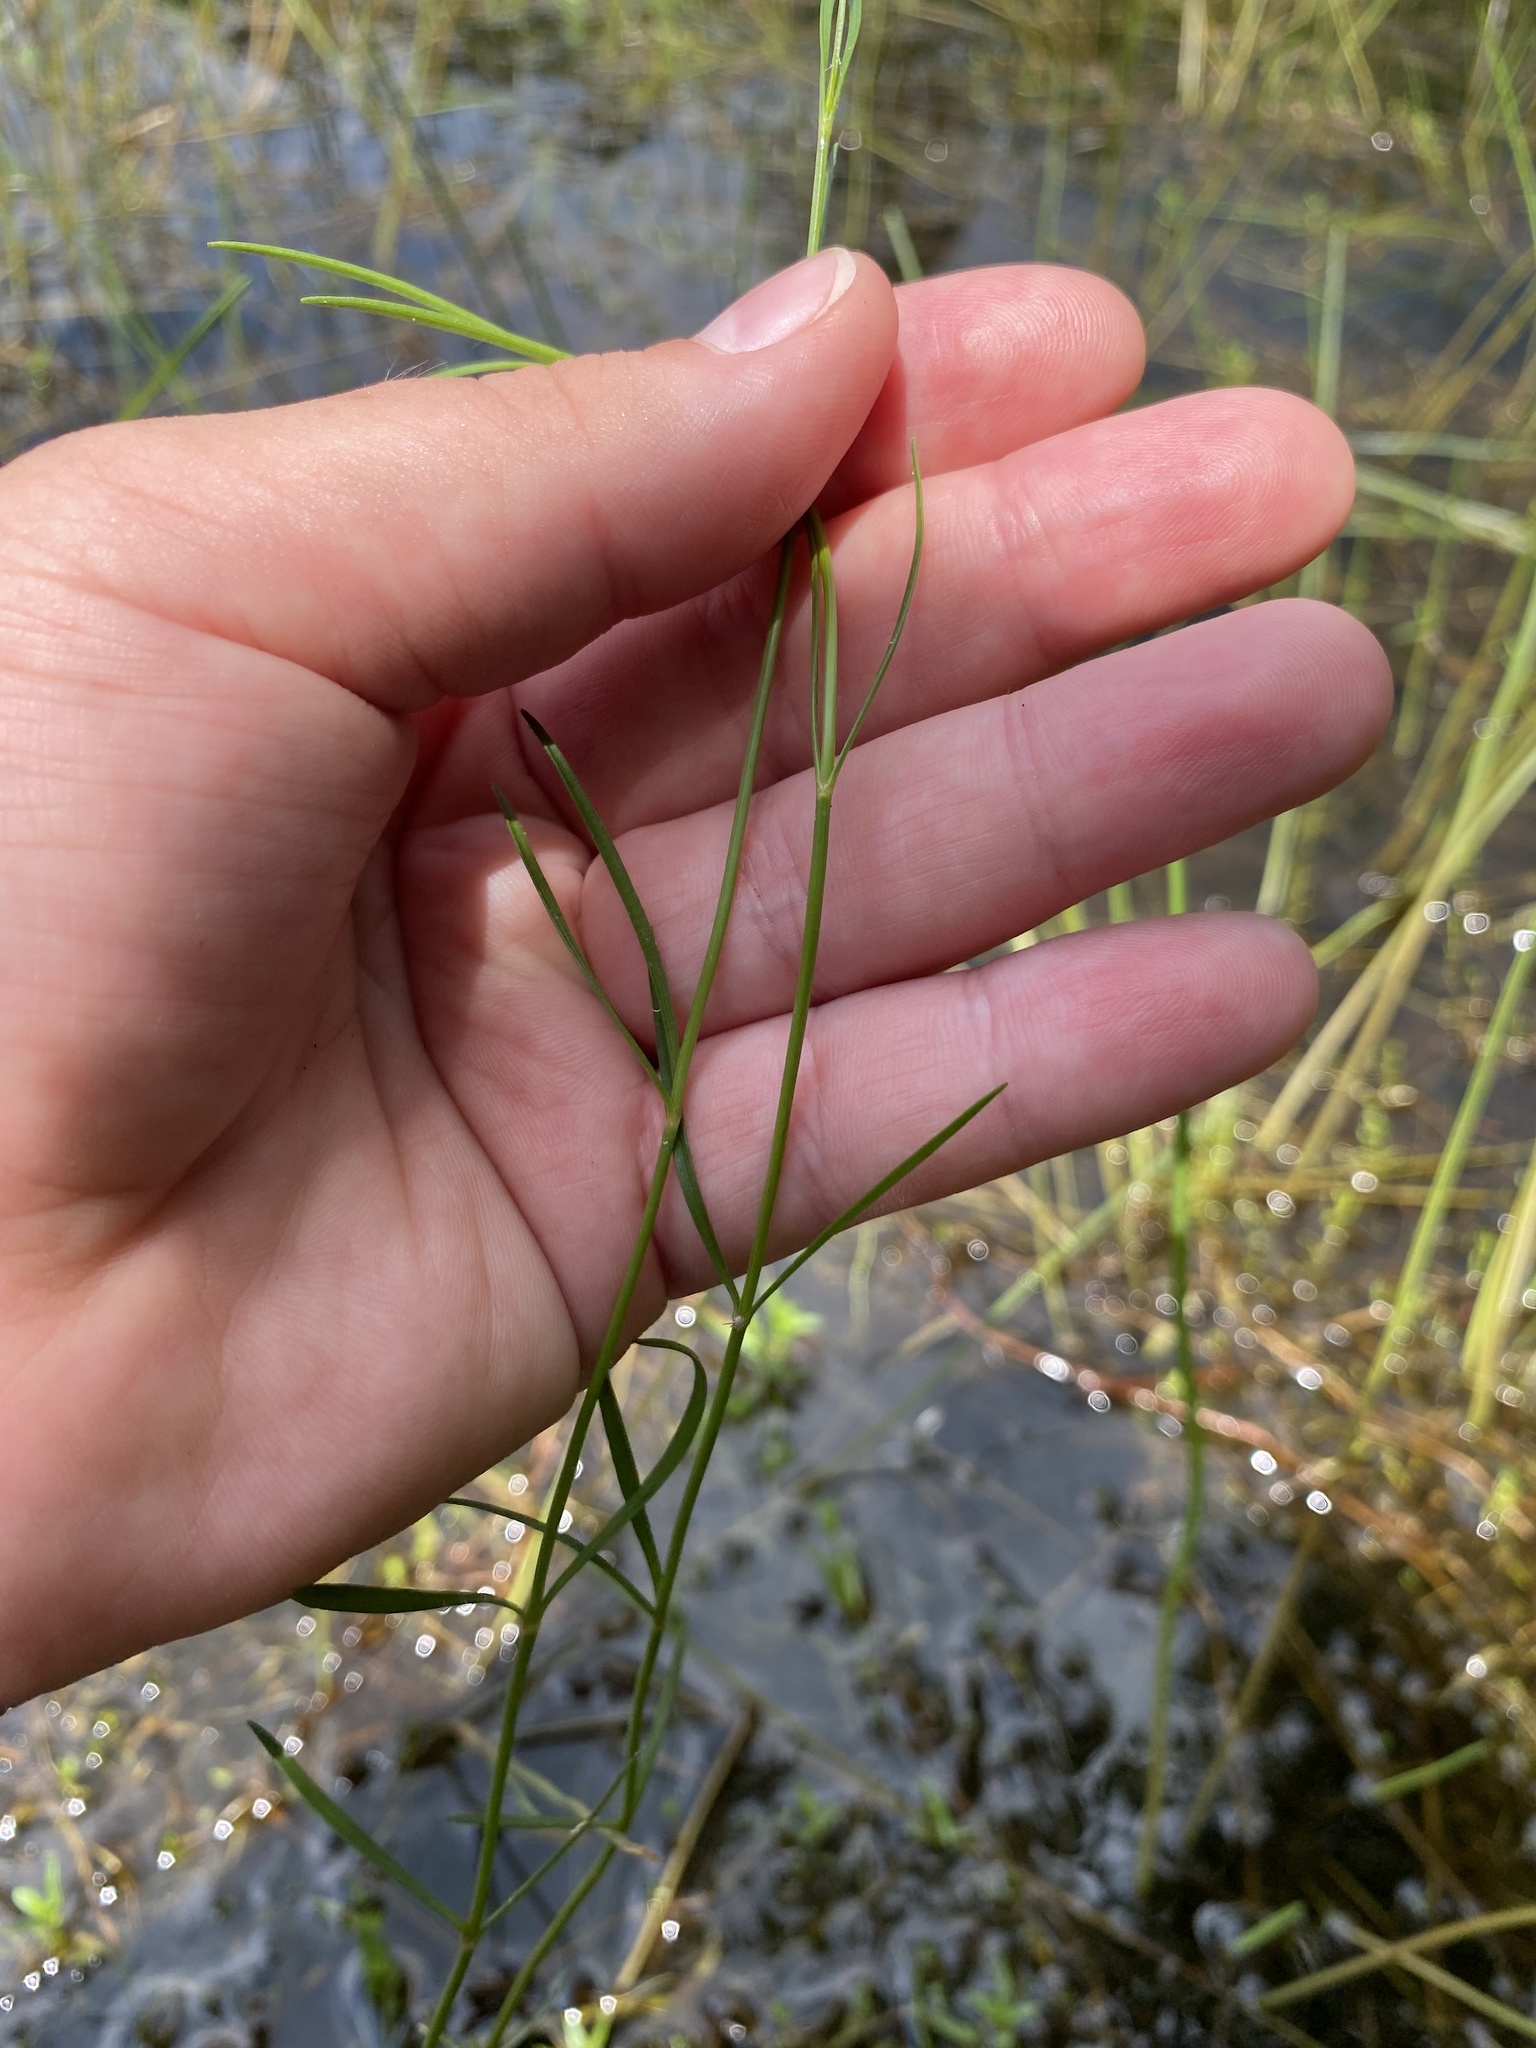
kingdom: Plantae
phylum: Tracheophyta
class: Magnoliopsida
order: Asterales
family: Asteraceae
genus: Coreopsis
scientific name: Coreopsis rosea
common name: Pink coreopsis
